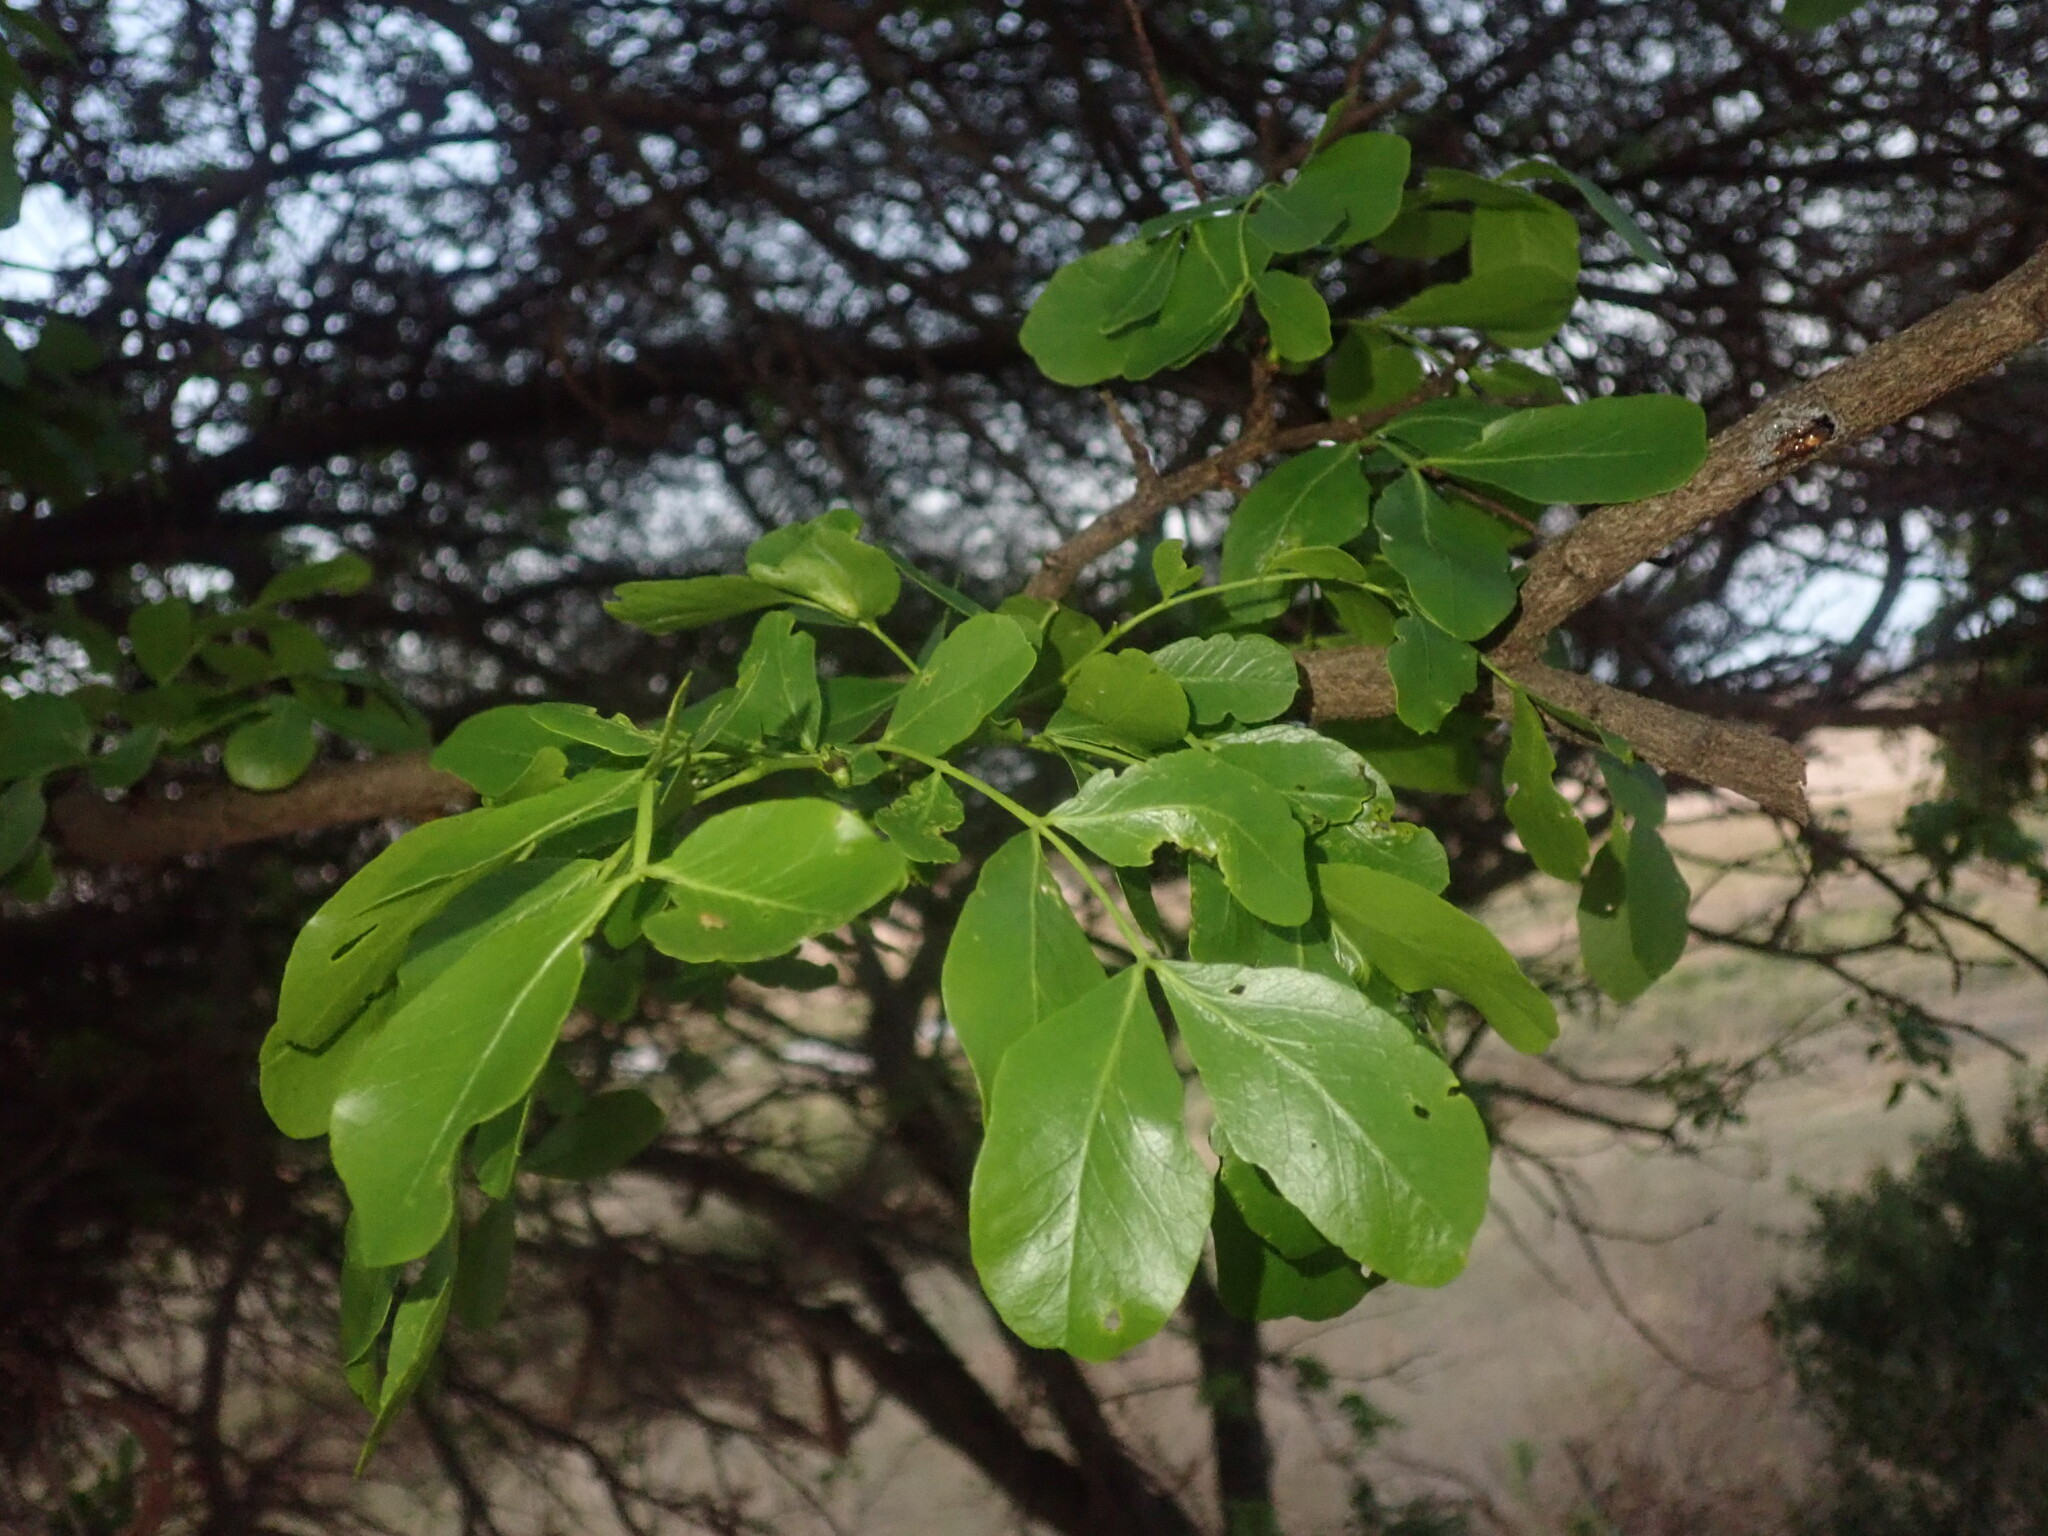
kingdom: Plantae
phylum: Tracheophyta
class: Magnoliopsida
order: Fabales
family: Fabaceae
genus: Schotia
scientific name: Schotia brachypetala
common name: Weeping boer-bean
